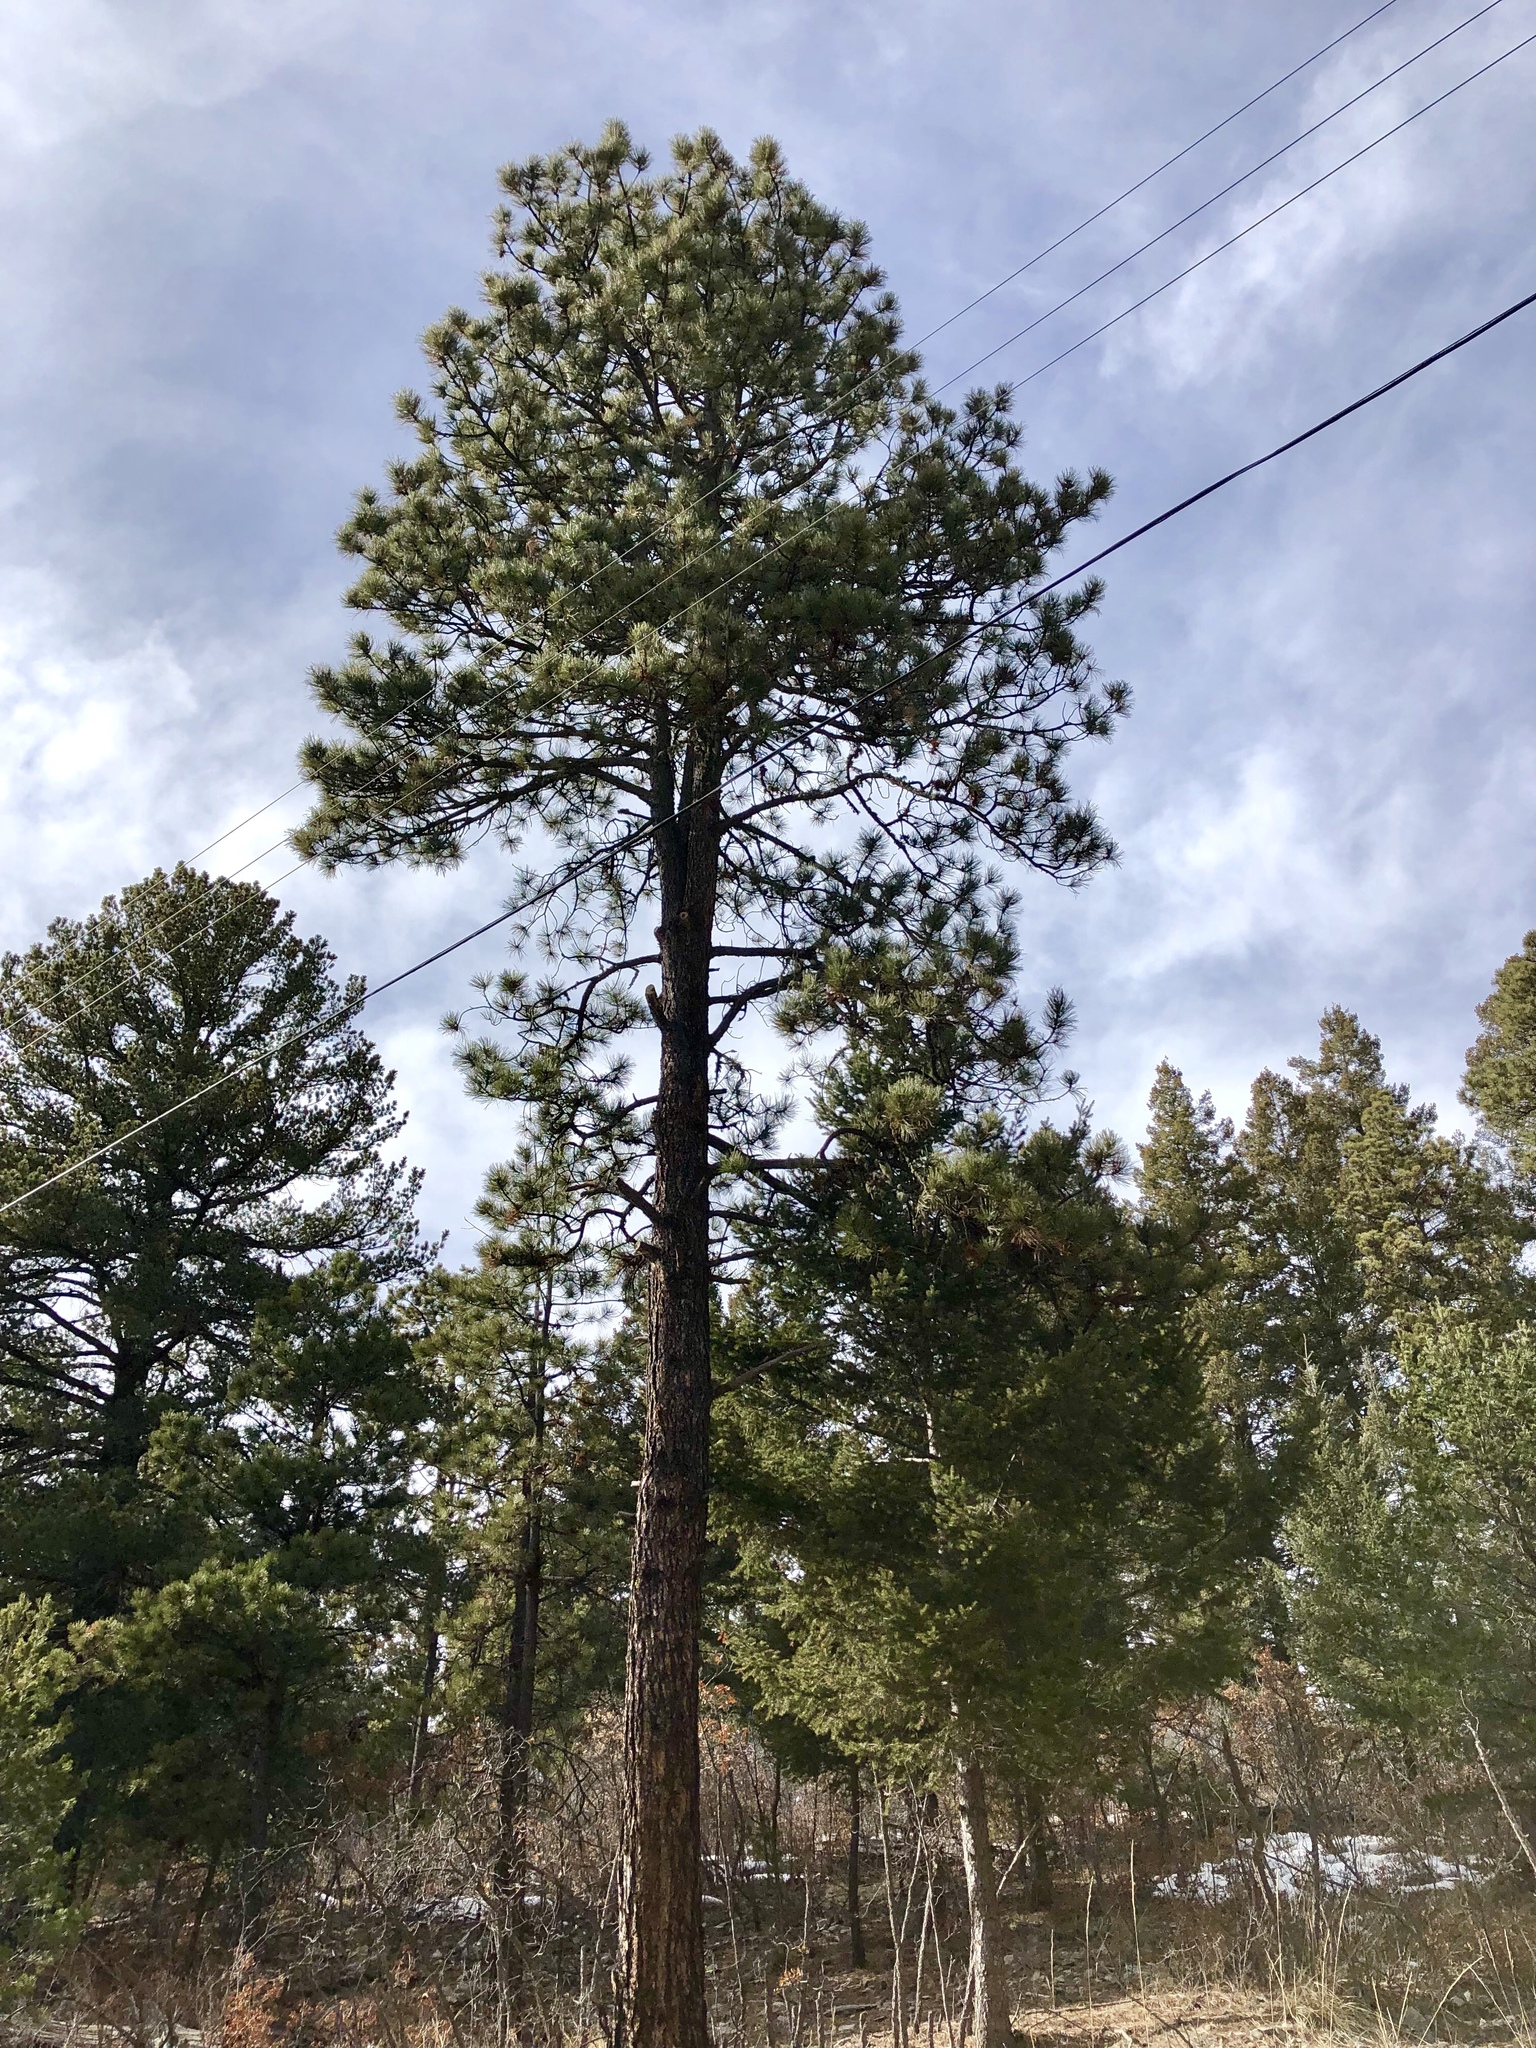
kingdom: Plantae
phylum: Tracheophyta
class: Pinopsida
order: Pinales
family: Pinaceae
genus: Pinus
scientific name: Pinus ponderosa
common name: Western yellow-pine
